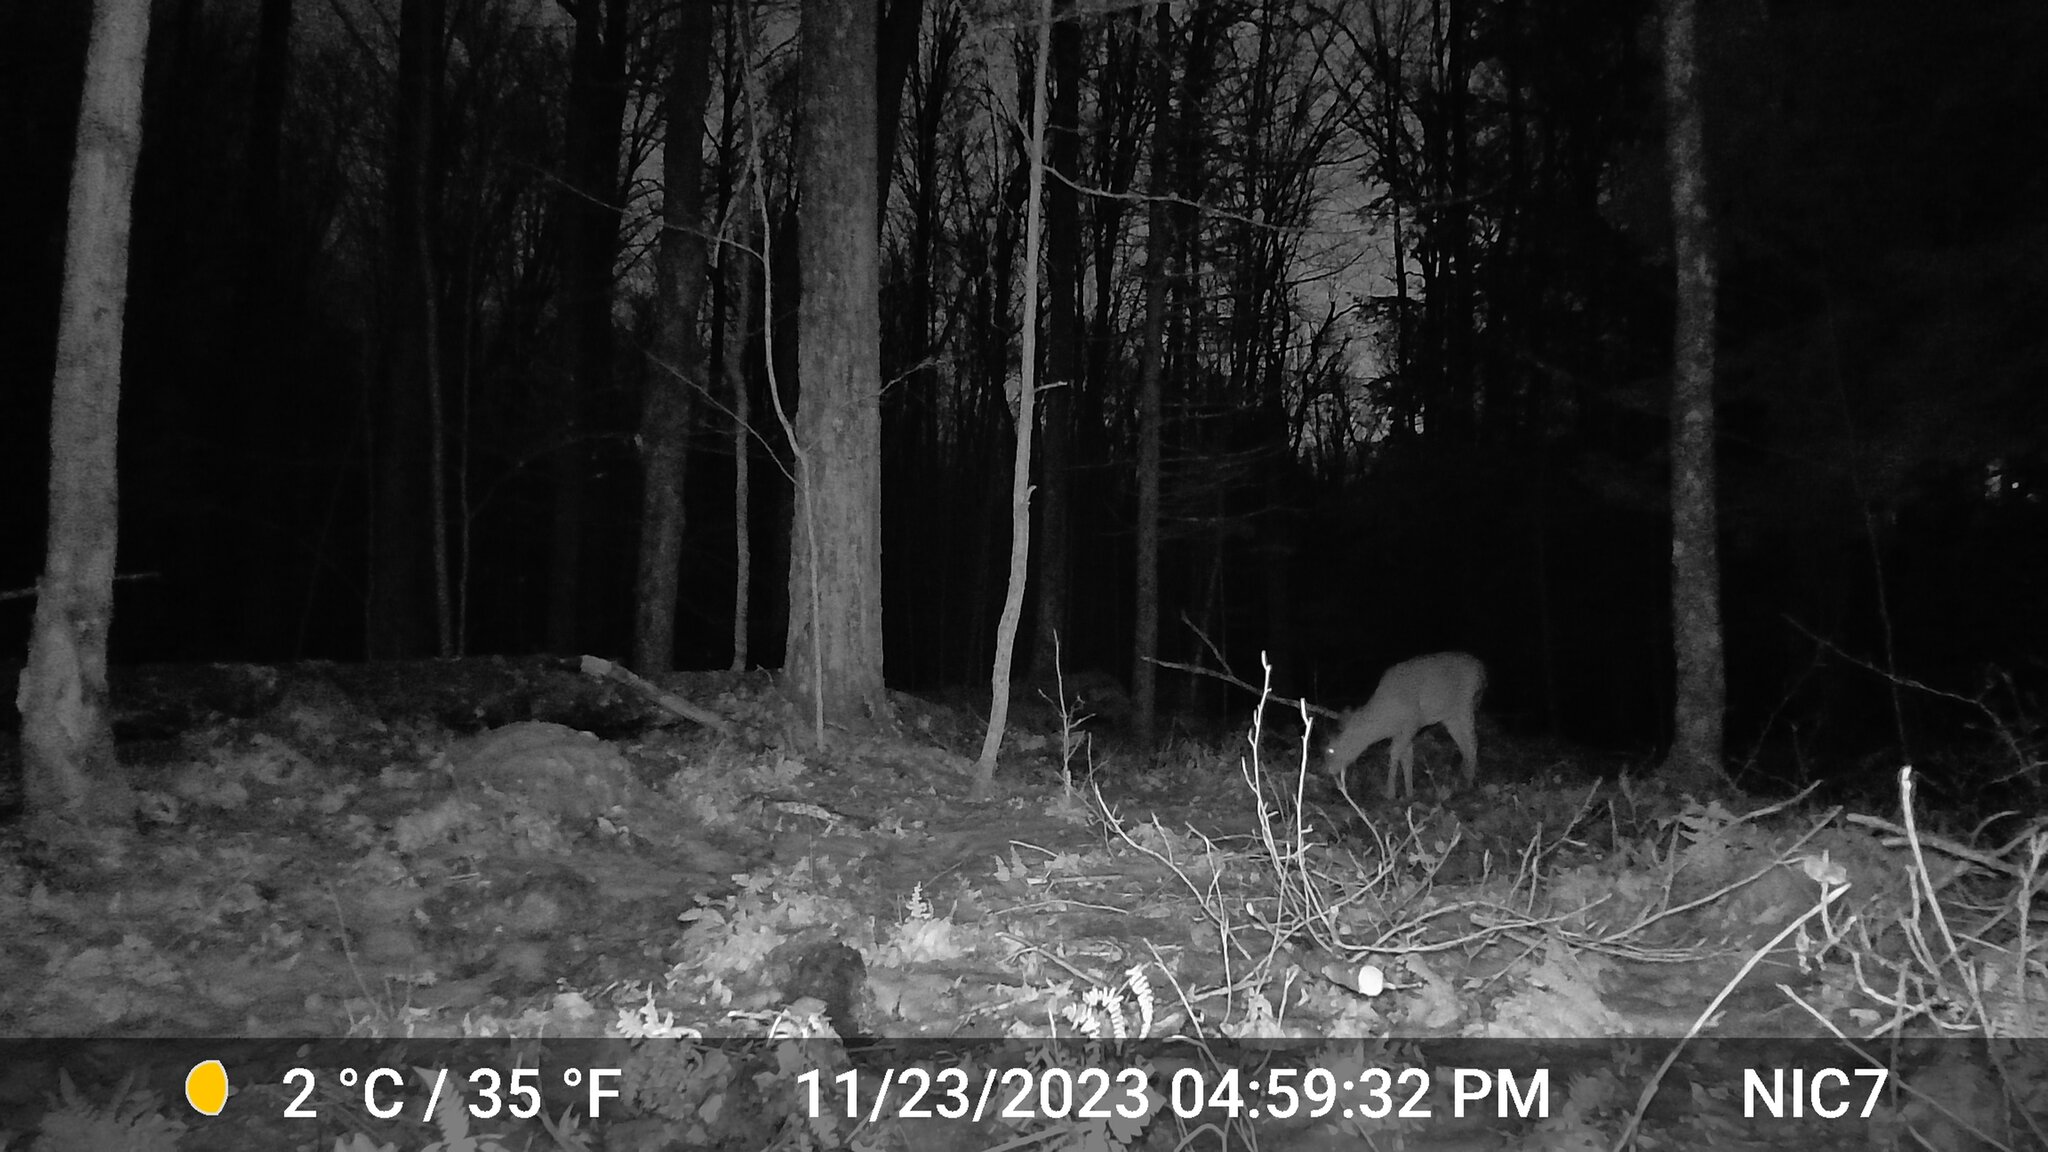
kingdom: Animalia
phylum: Chordata
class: Mammalia
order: Artiodactyla
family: Cervidae
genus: Odocoileus
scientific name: Odocoileus virginianus
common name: White-tailed deer
